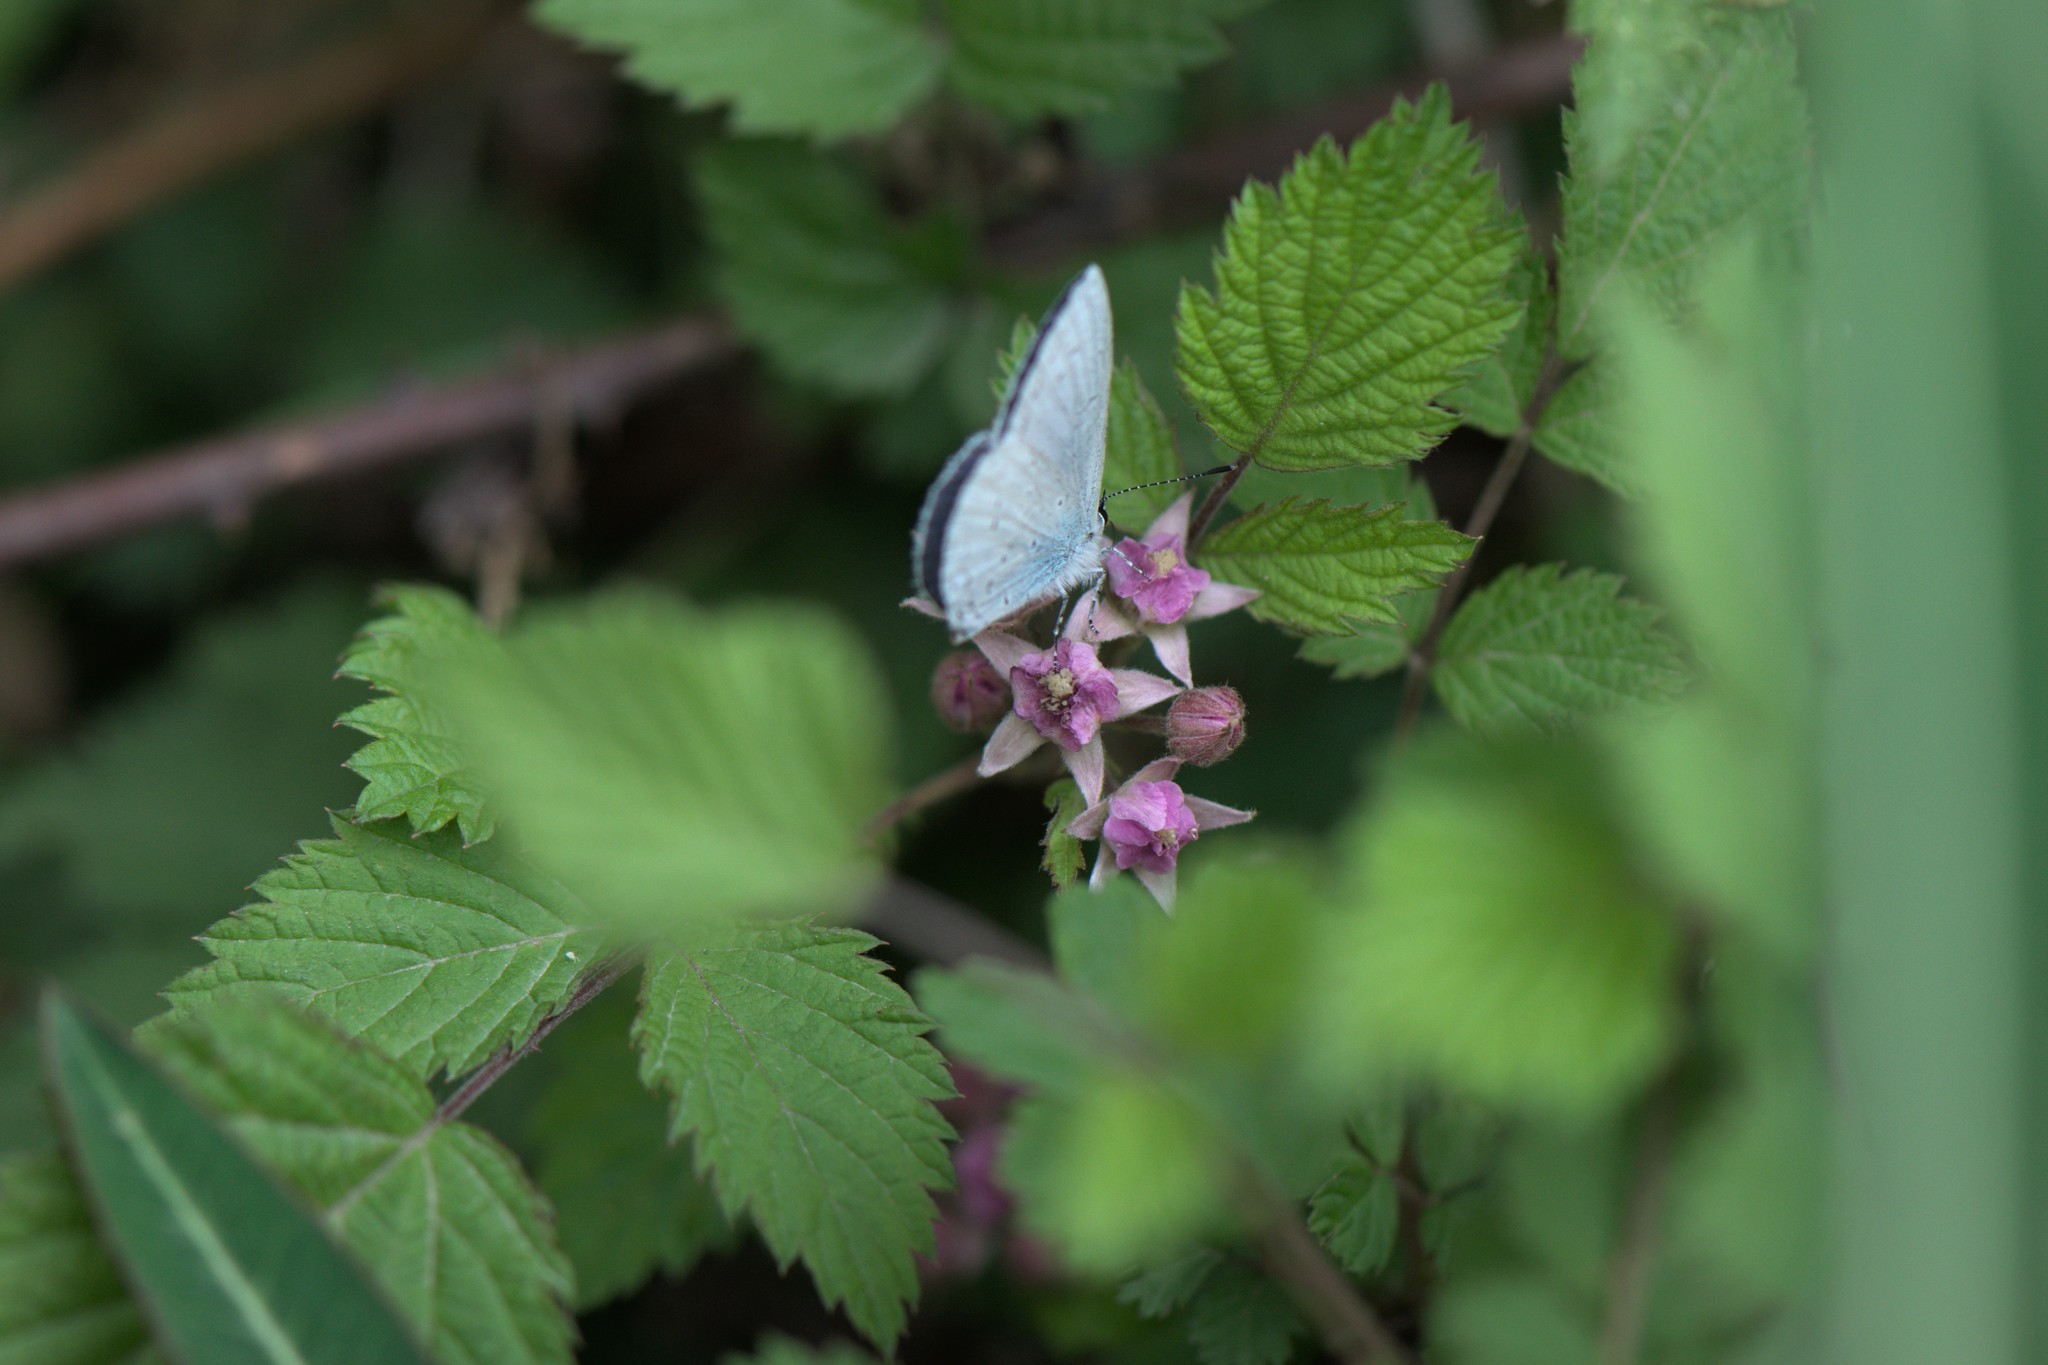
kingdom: Plantae
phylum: Tracheophyta
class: Magnoliopsida
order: Rosales
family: Rosaceae
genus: Rubus
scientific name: Rubus niveus
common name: Snowpeaks raspberry
